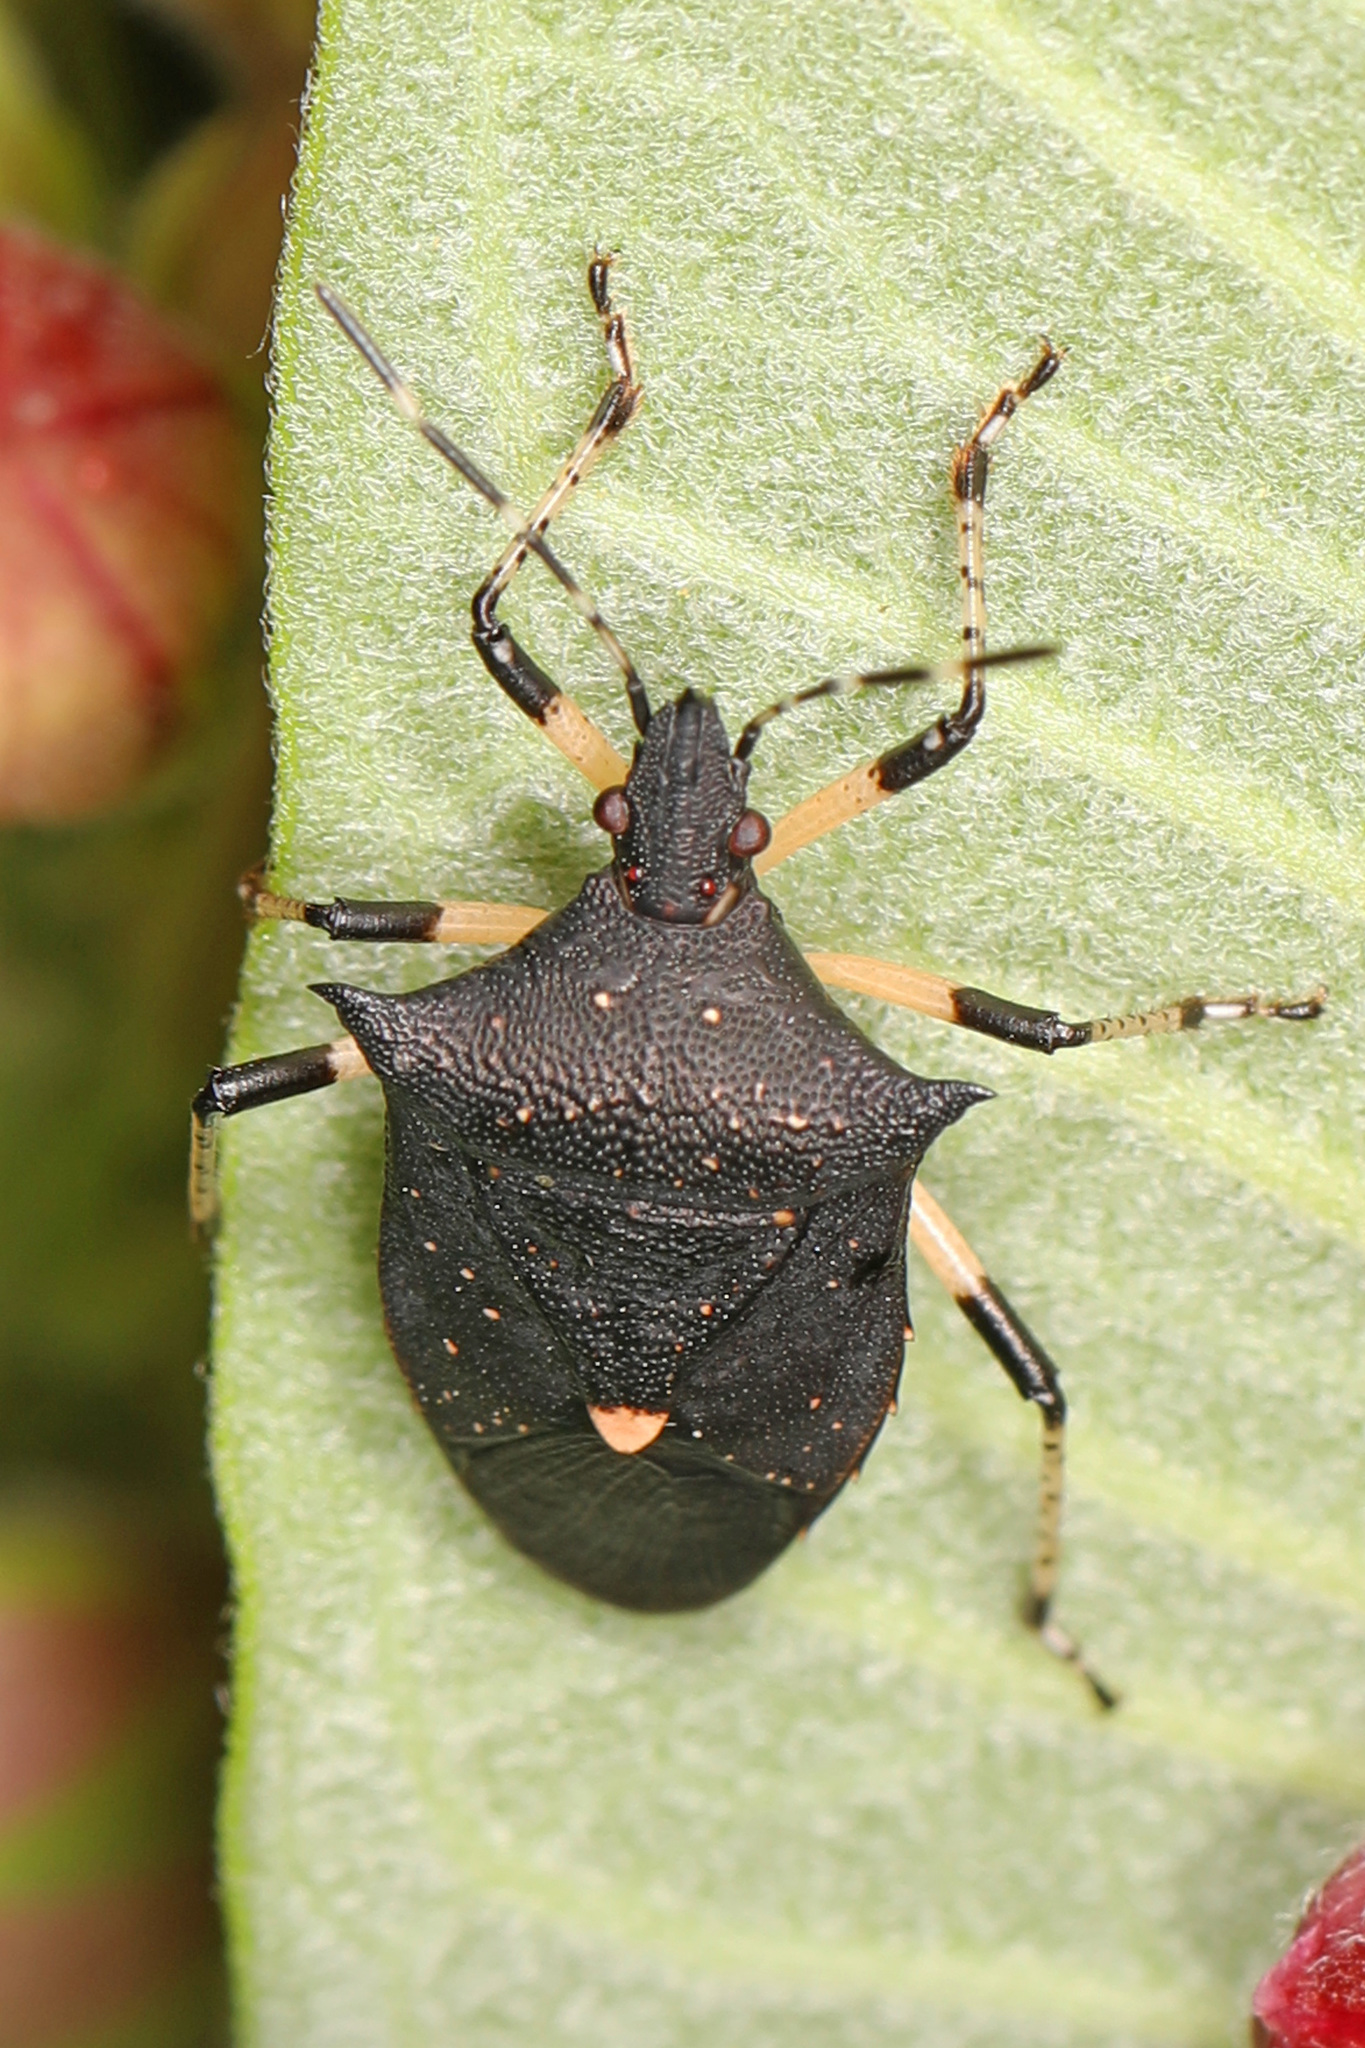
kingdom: Animalia
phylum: Arthropoda
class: Insecta
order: Hemiptera
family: Pentatomidae
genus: Proxys
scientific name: Proxys punctulatus
